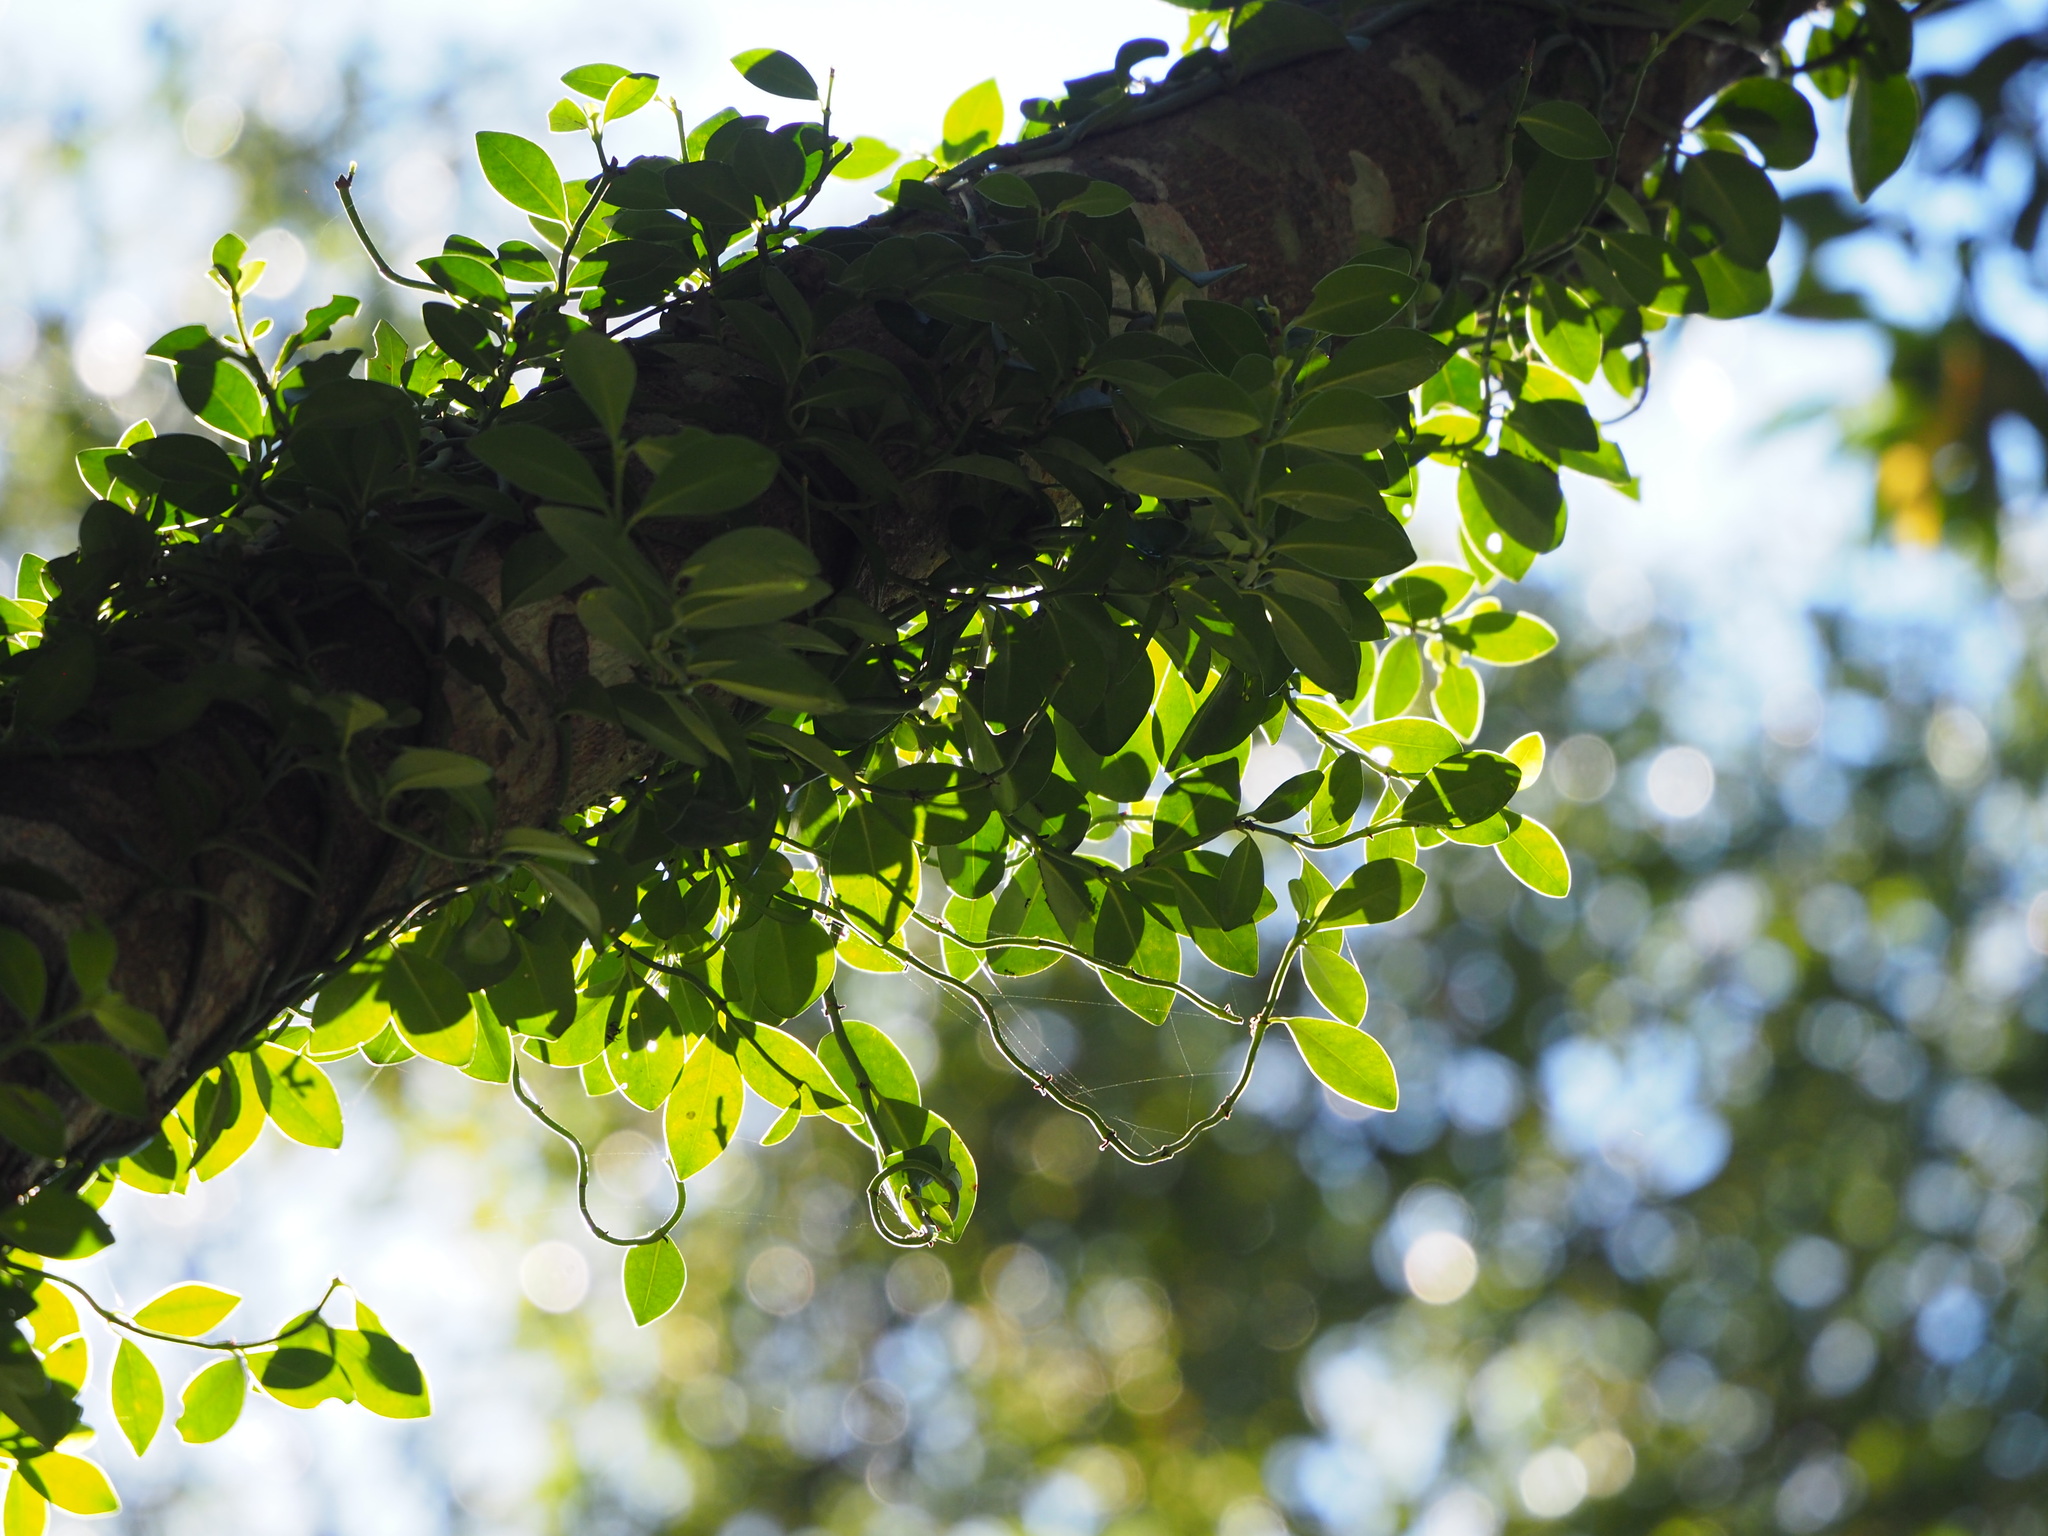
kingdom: Plantae
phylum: Tracheophyta
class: Magnoliopsida
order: Gentianales
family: Rubiaceae
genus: Psychotria
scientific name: Psychotria serpens
